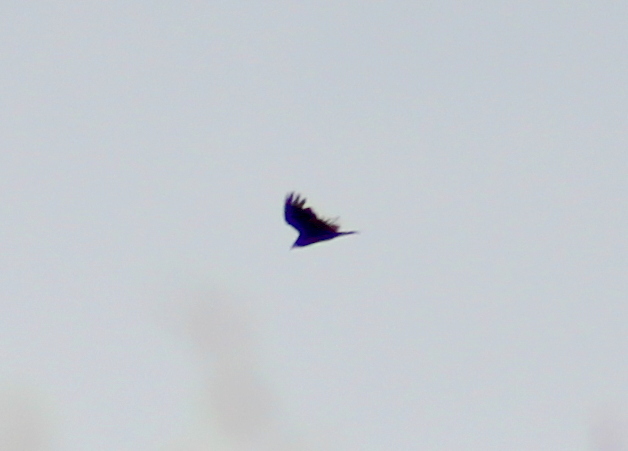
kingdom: Animalia
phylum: Chordata
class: Aves
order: Accipitriformes
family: Cathartidae
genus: Cathartes
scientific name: Cathartes aura
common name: Turkey vulture
